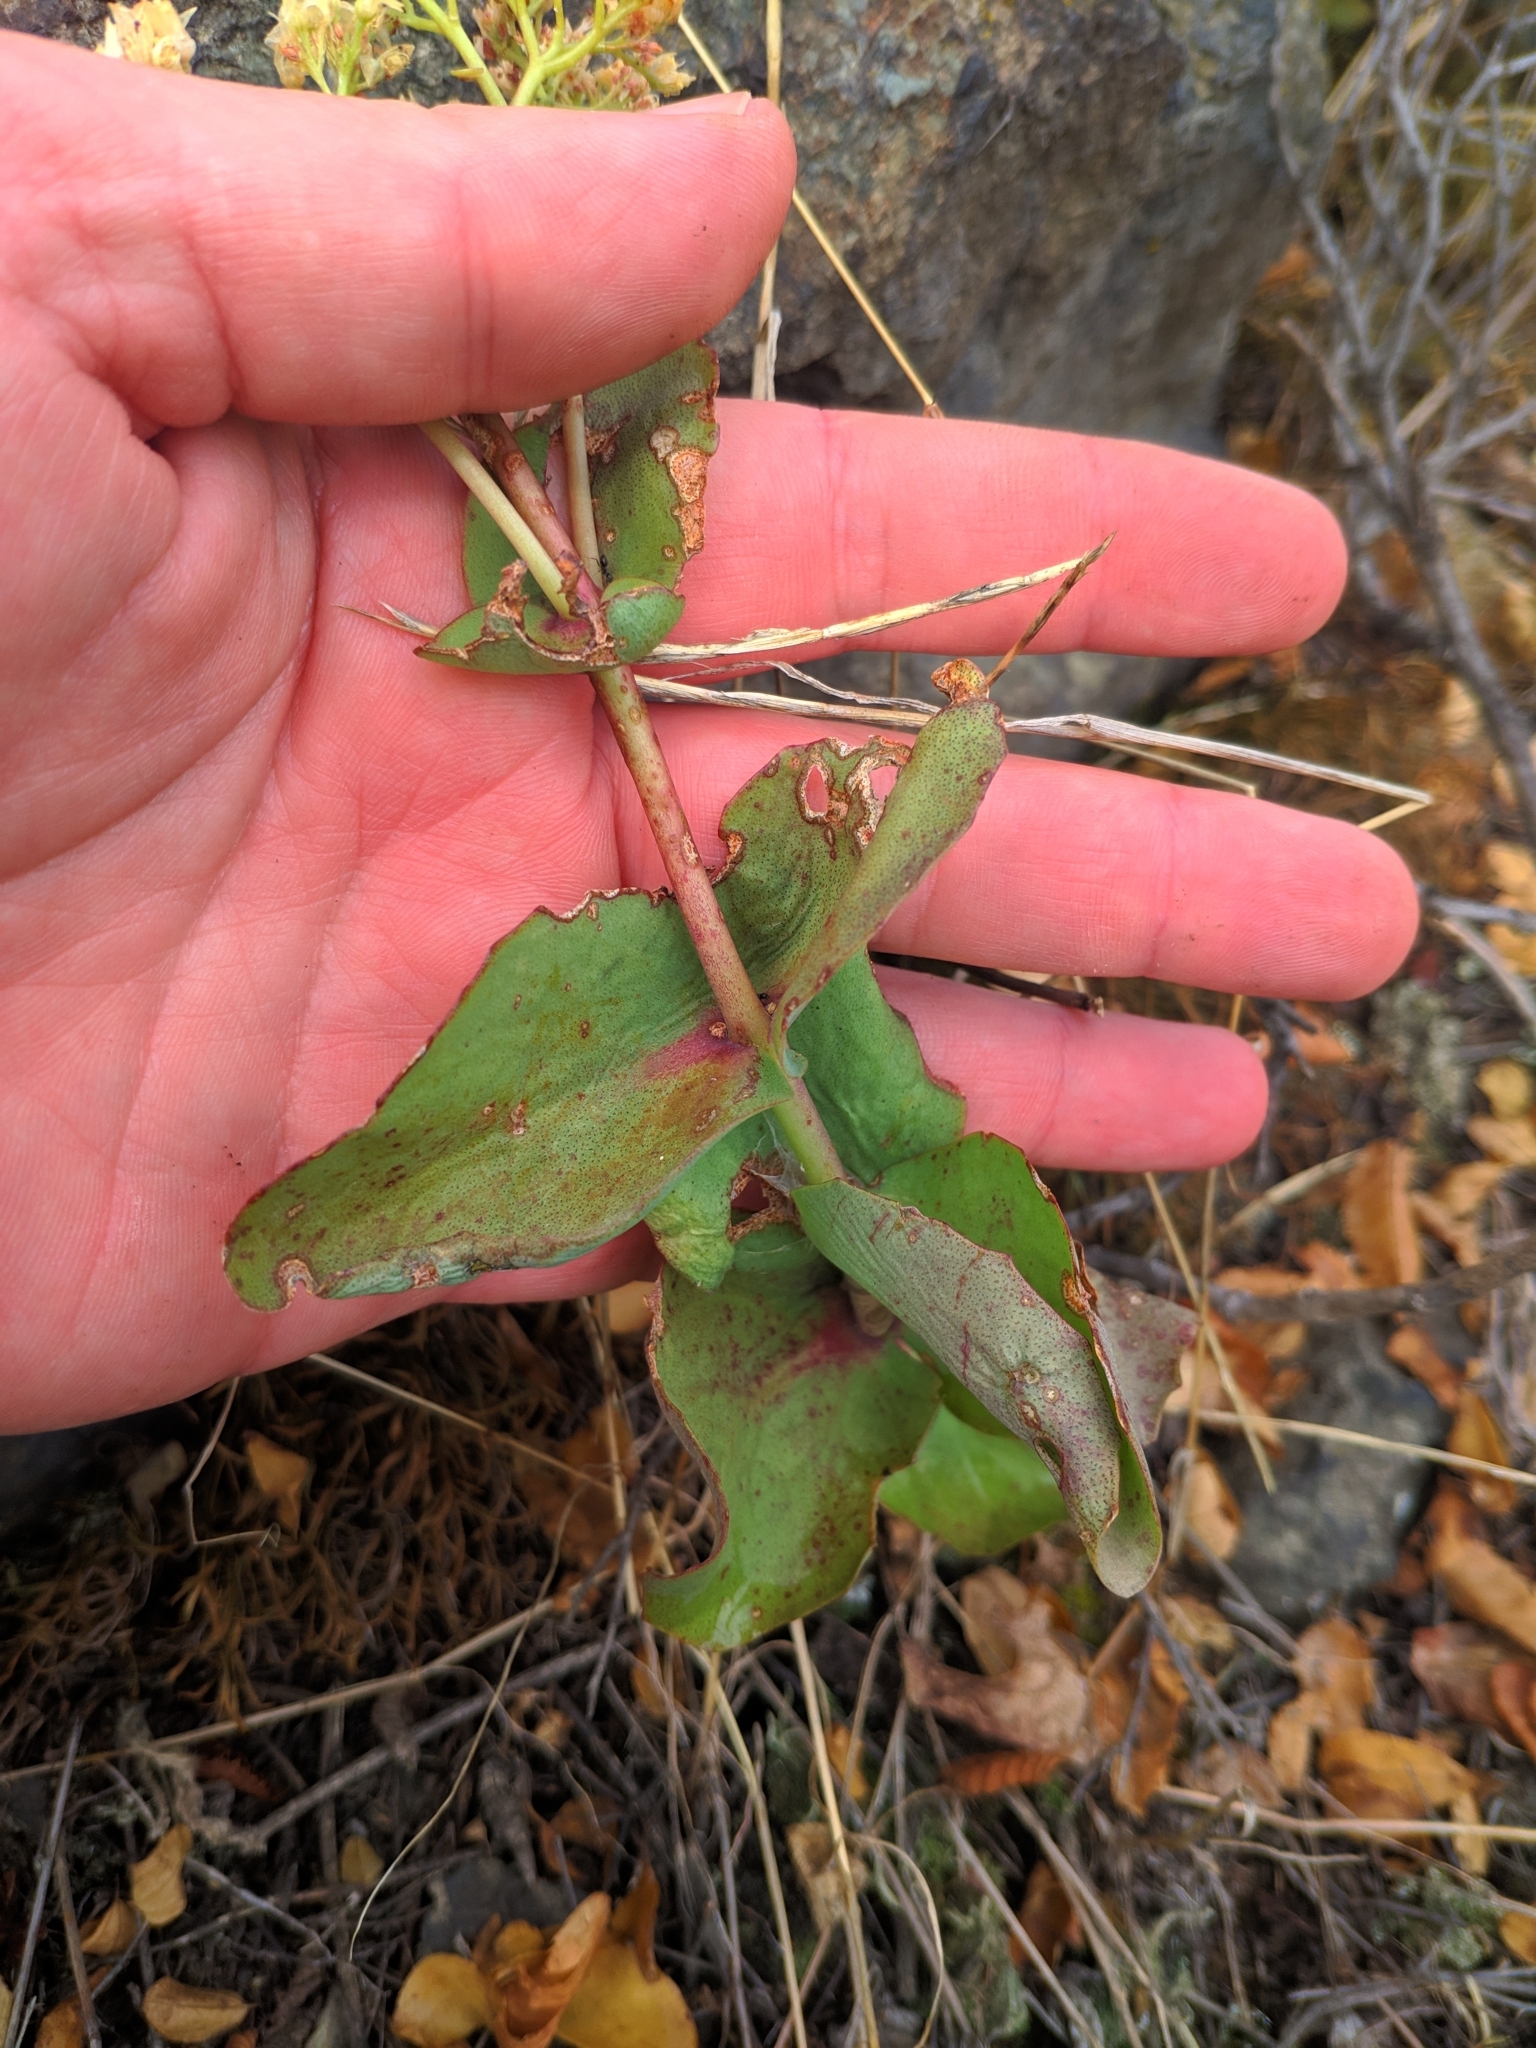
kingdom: Plantae
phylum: Tracheophyta
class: Magnoliopsida
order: Saxifragales
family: Crassulaceae
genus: Hylotelephium
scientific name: Hylotelephium maximum
